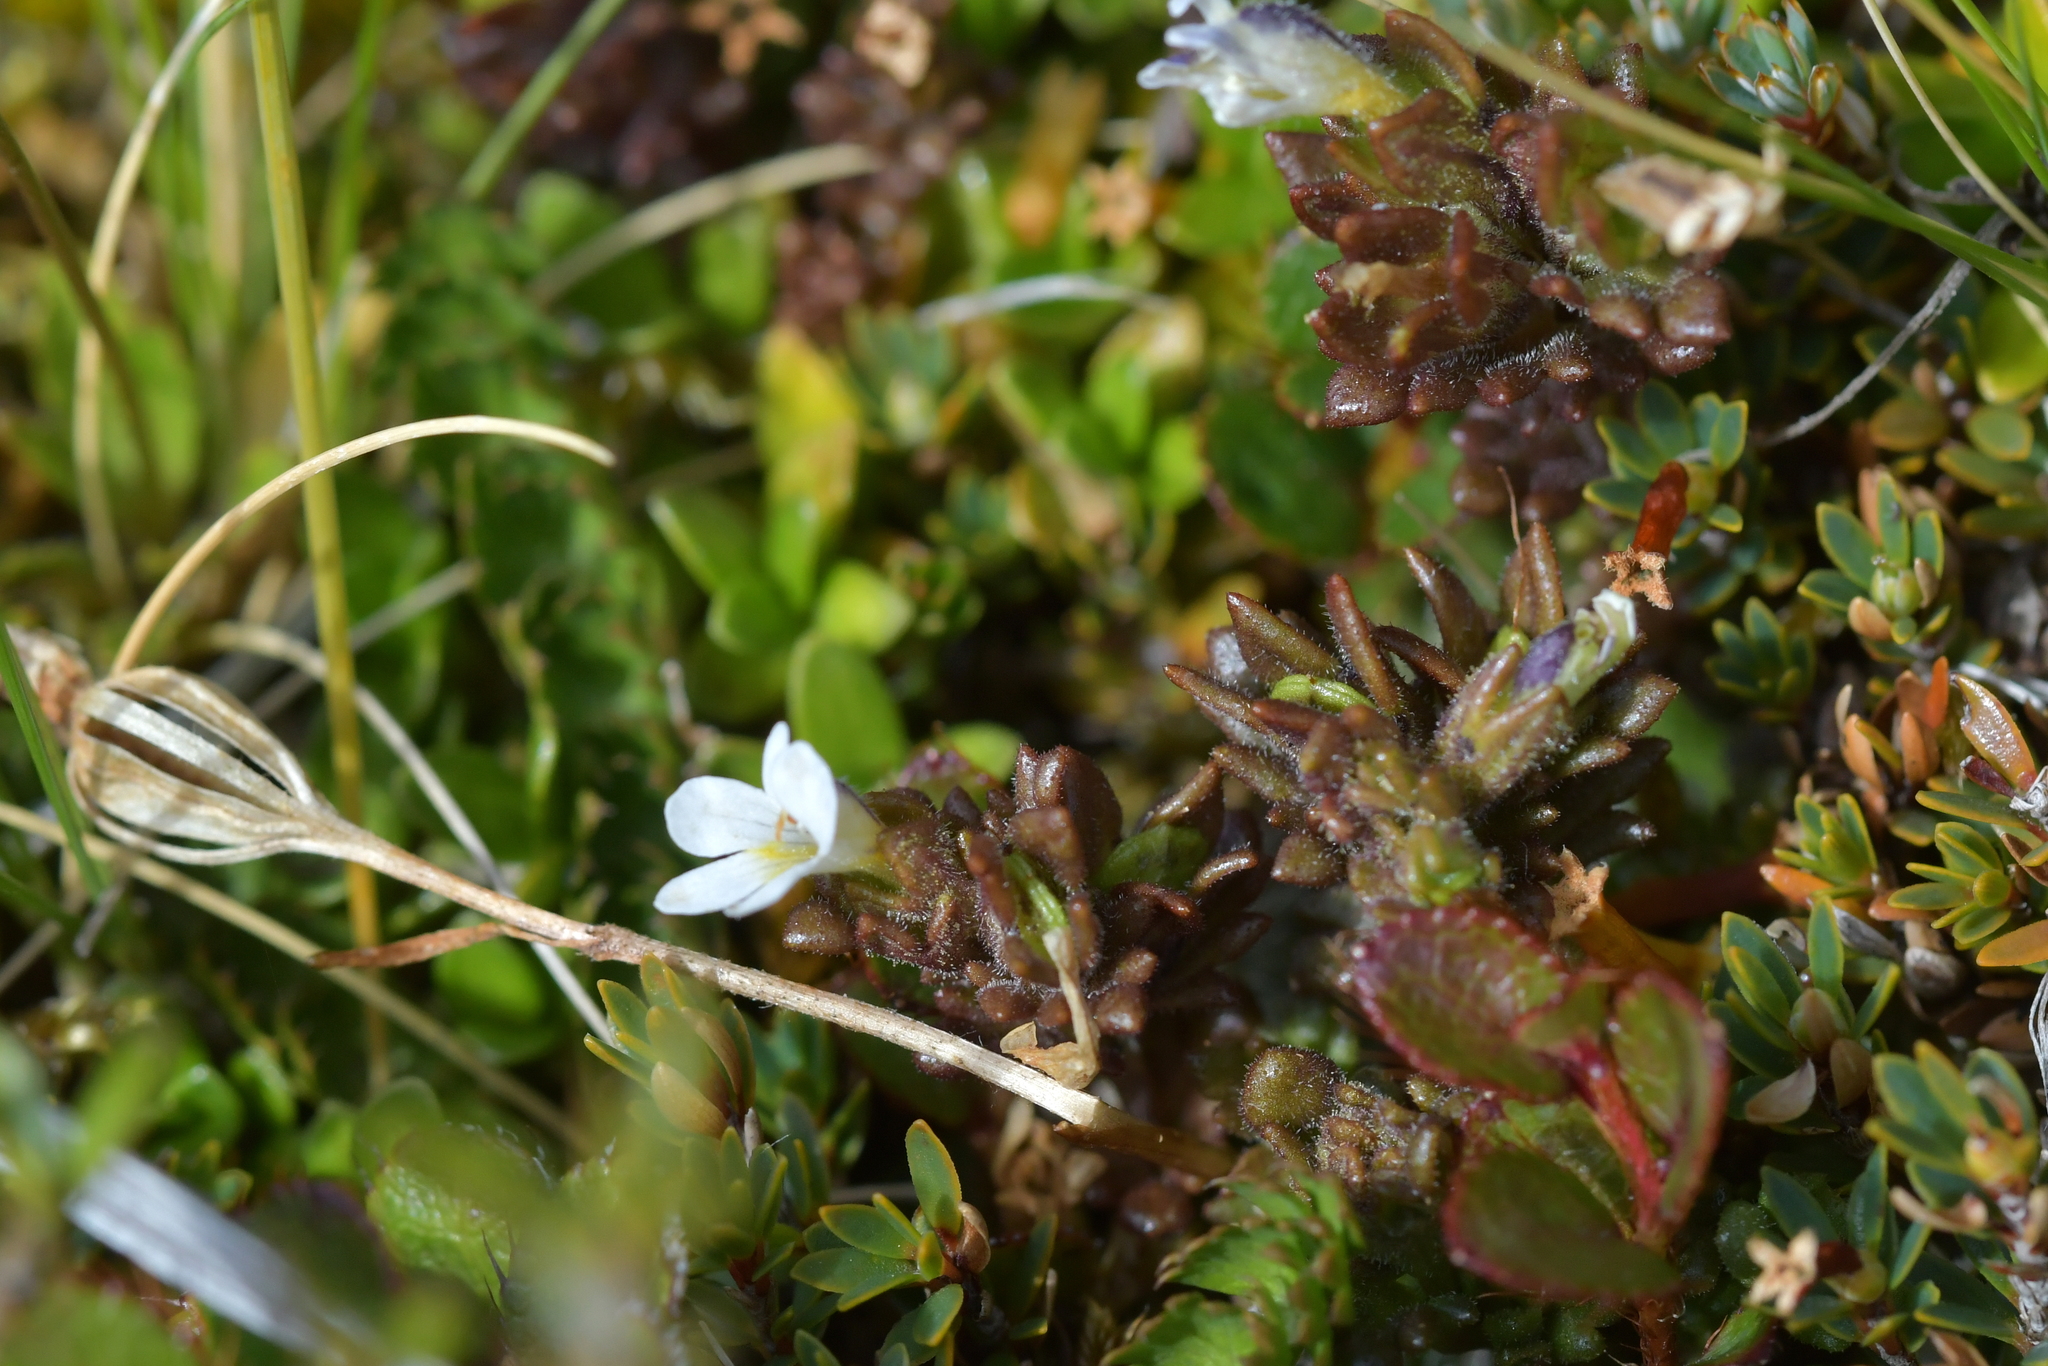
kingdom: Plantae
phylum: Tracheophyta
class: Magnoliopsida
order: Lamiales
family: Orobanchaceae
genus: Euphrasia
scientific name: Euphrasia zelandica
